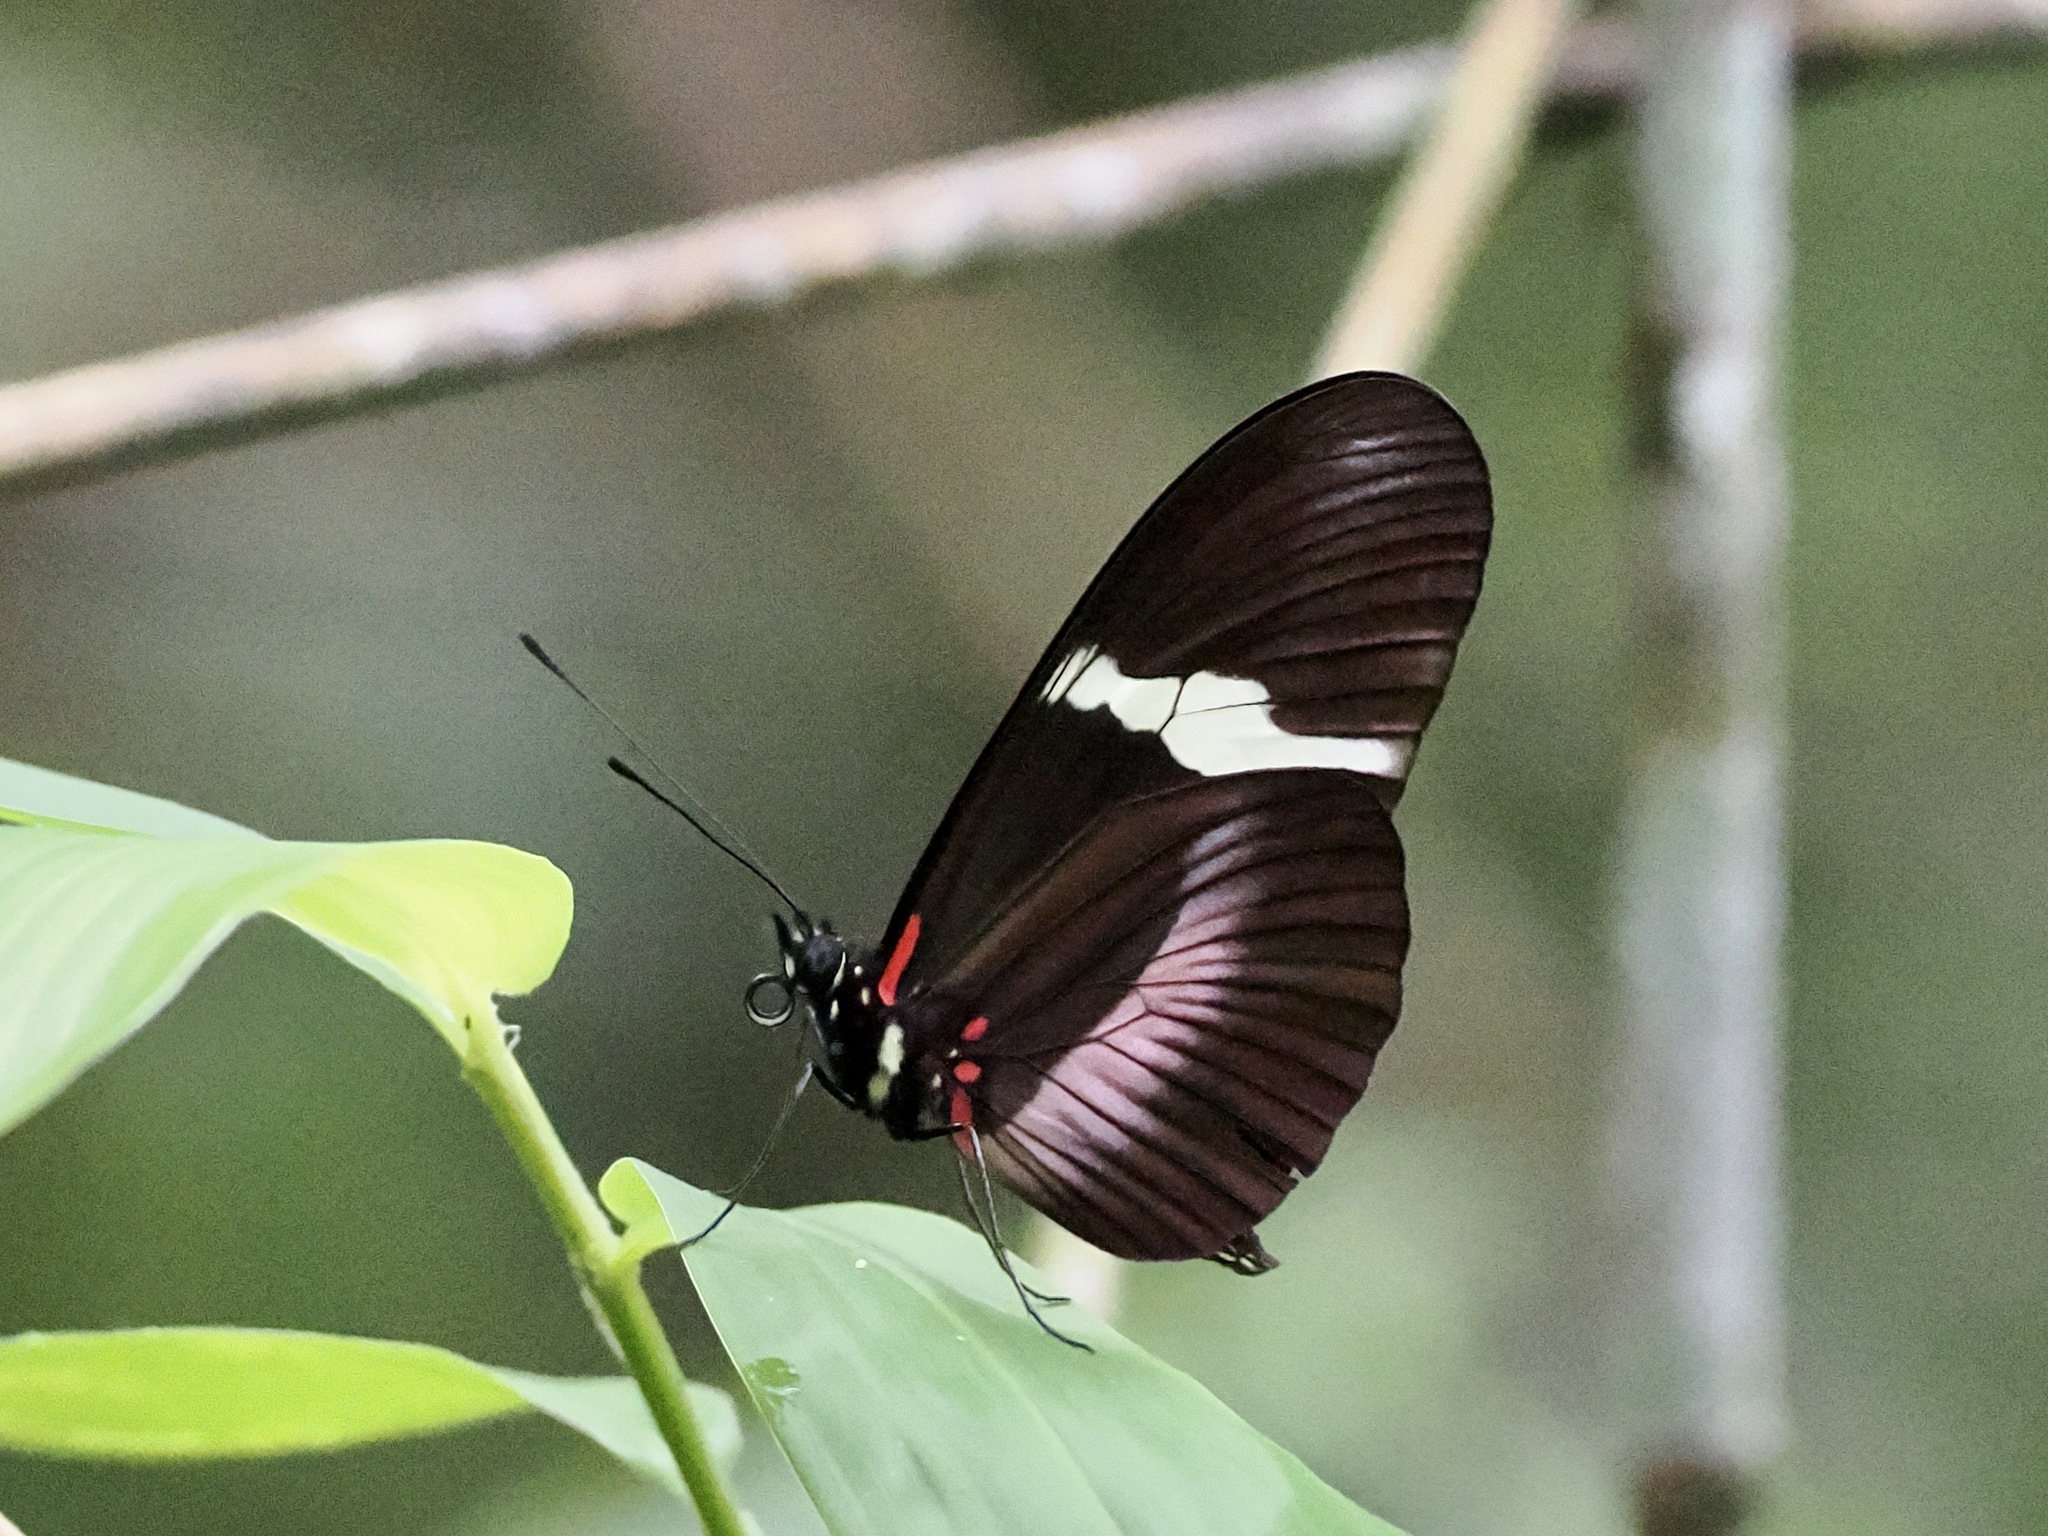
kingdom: Animalia
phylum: Arthropoda
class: Insecta
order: Lepidoptera
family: Nymphalidae
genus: Heliconius
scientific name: Heliconius clysonymus
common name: Clysonymus longwing
